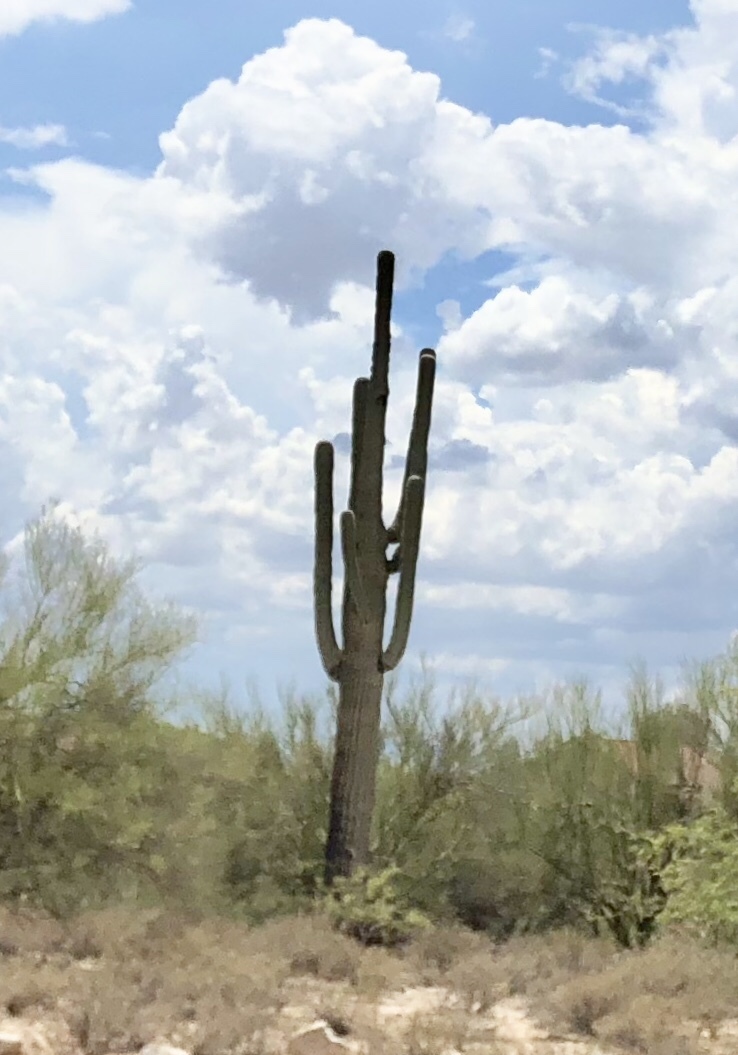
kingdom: Plantae
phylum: Tracheophyta
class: Magnoliopsida
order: Caryophyllales
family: Cactaceae
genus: Carnegiea
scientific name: Carnegiea gigantea
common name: Saguaro
